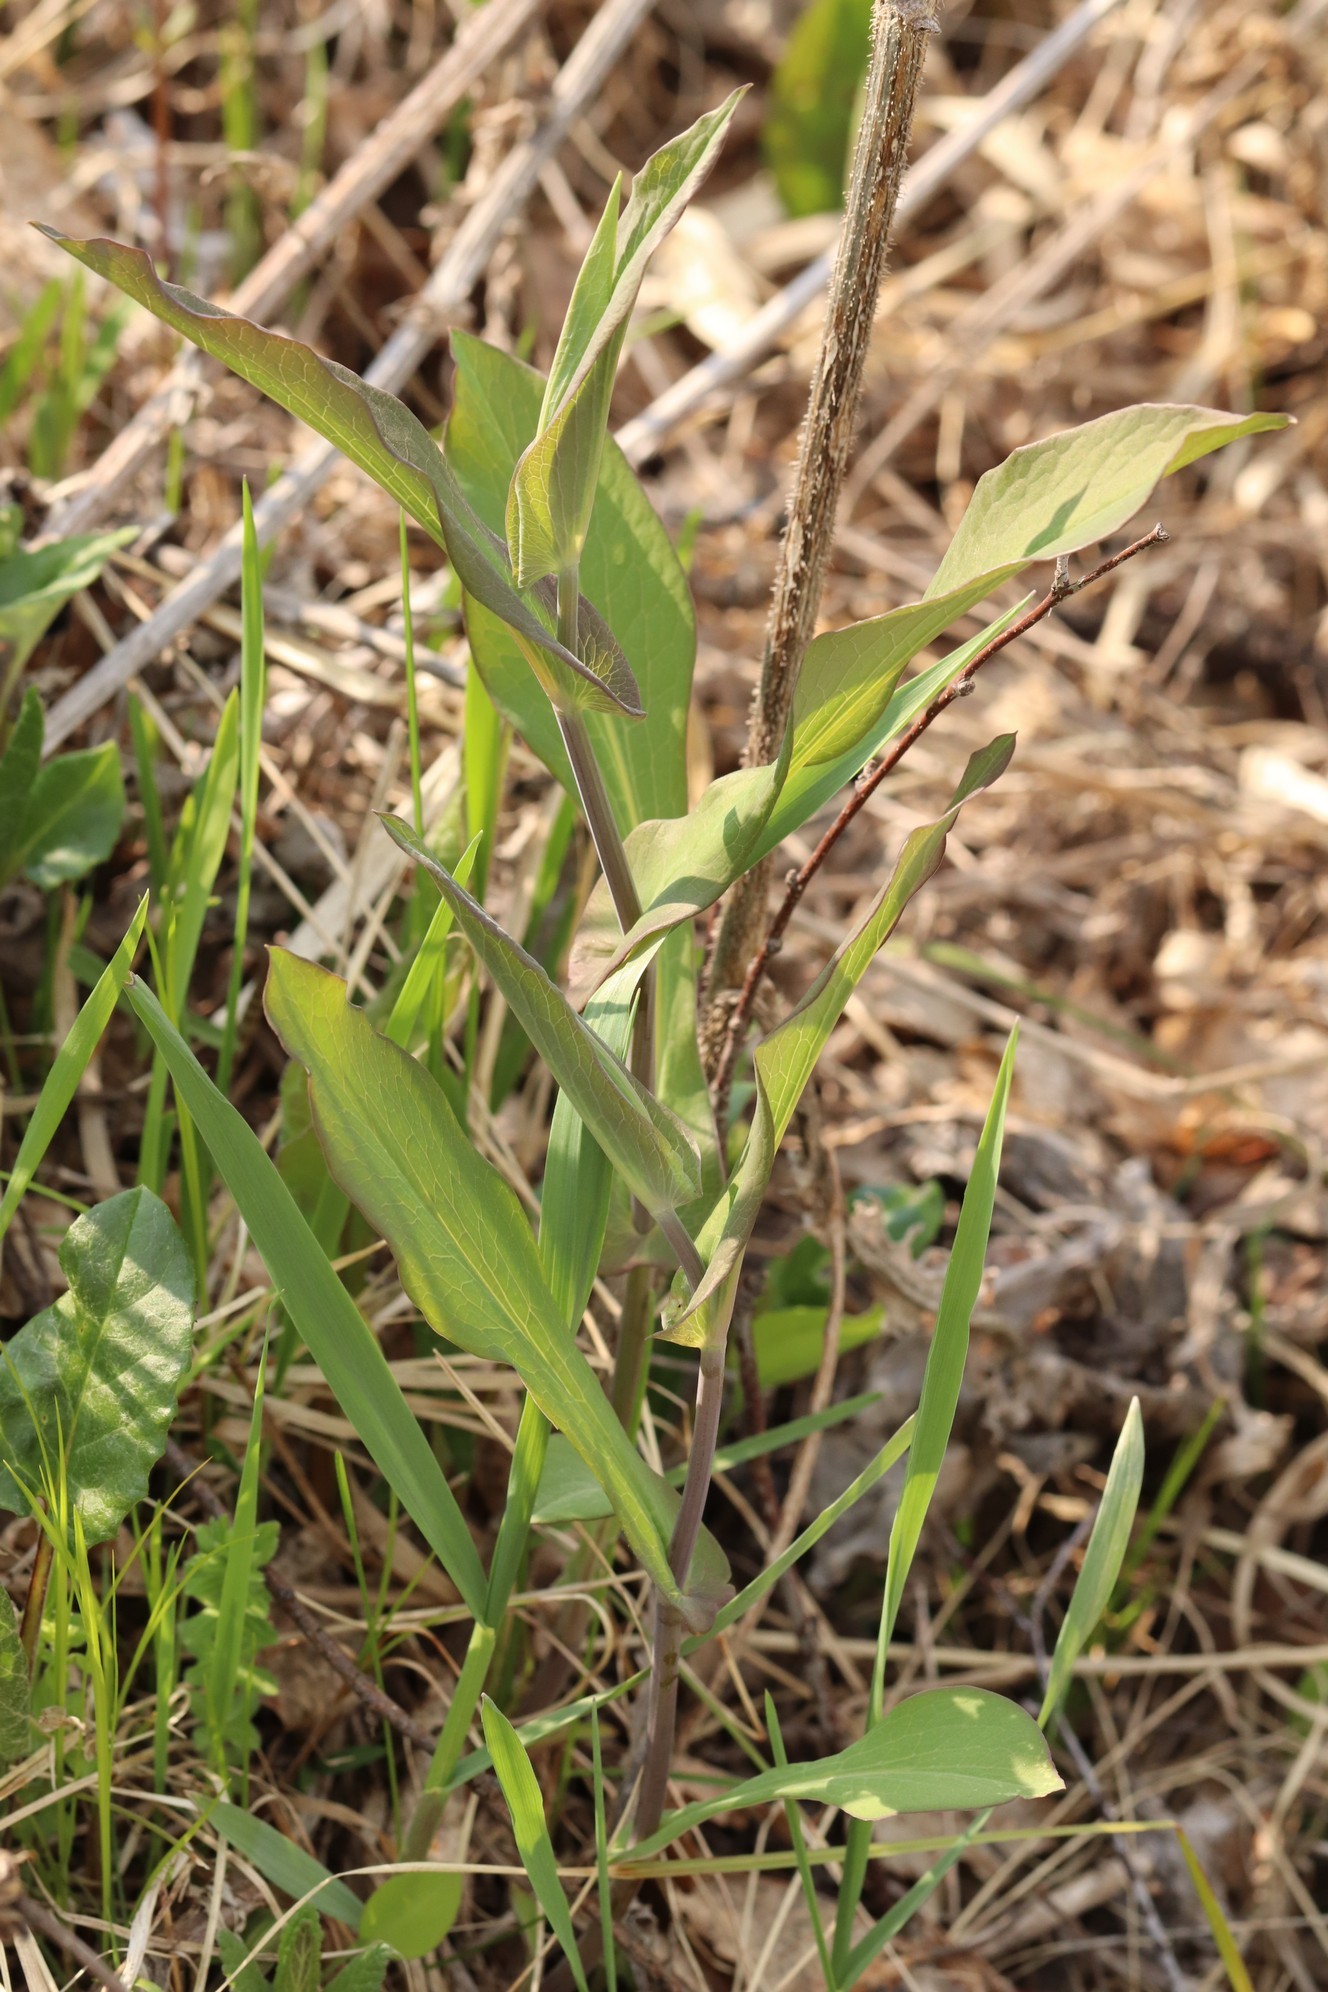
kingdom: Plantae
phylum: Tracheophyta
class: Magnoliopsida
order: Apiales
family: Apiaceae
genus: Bupleurum
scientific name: Bupleurum aureum
